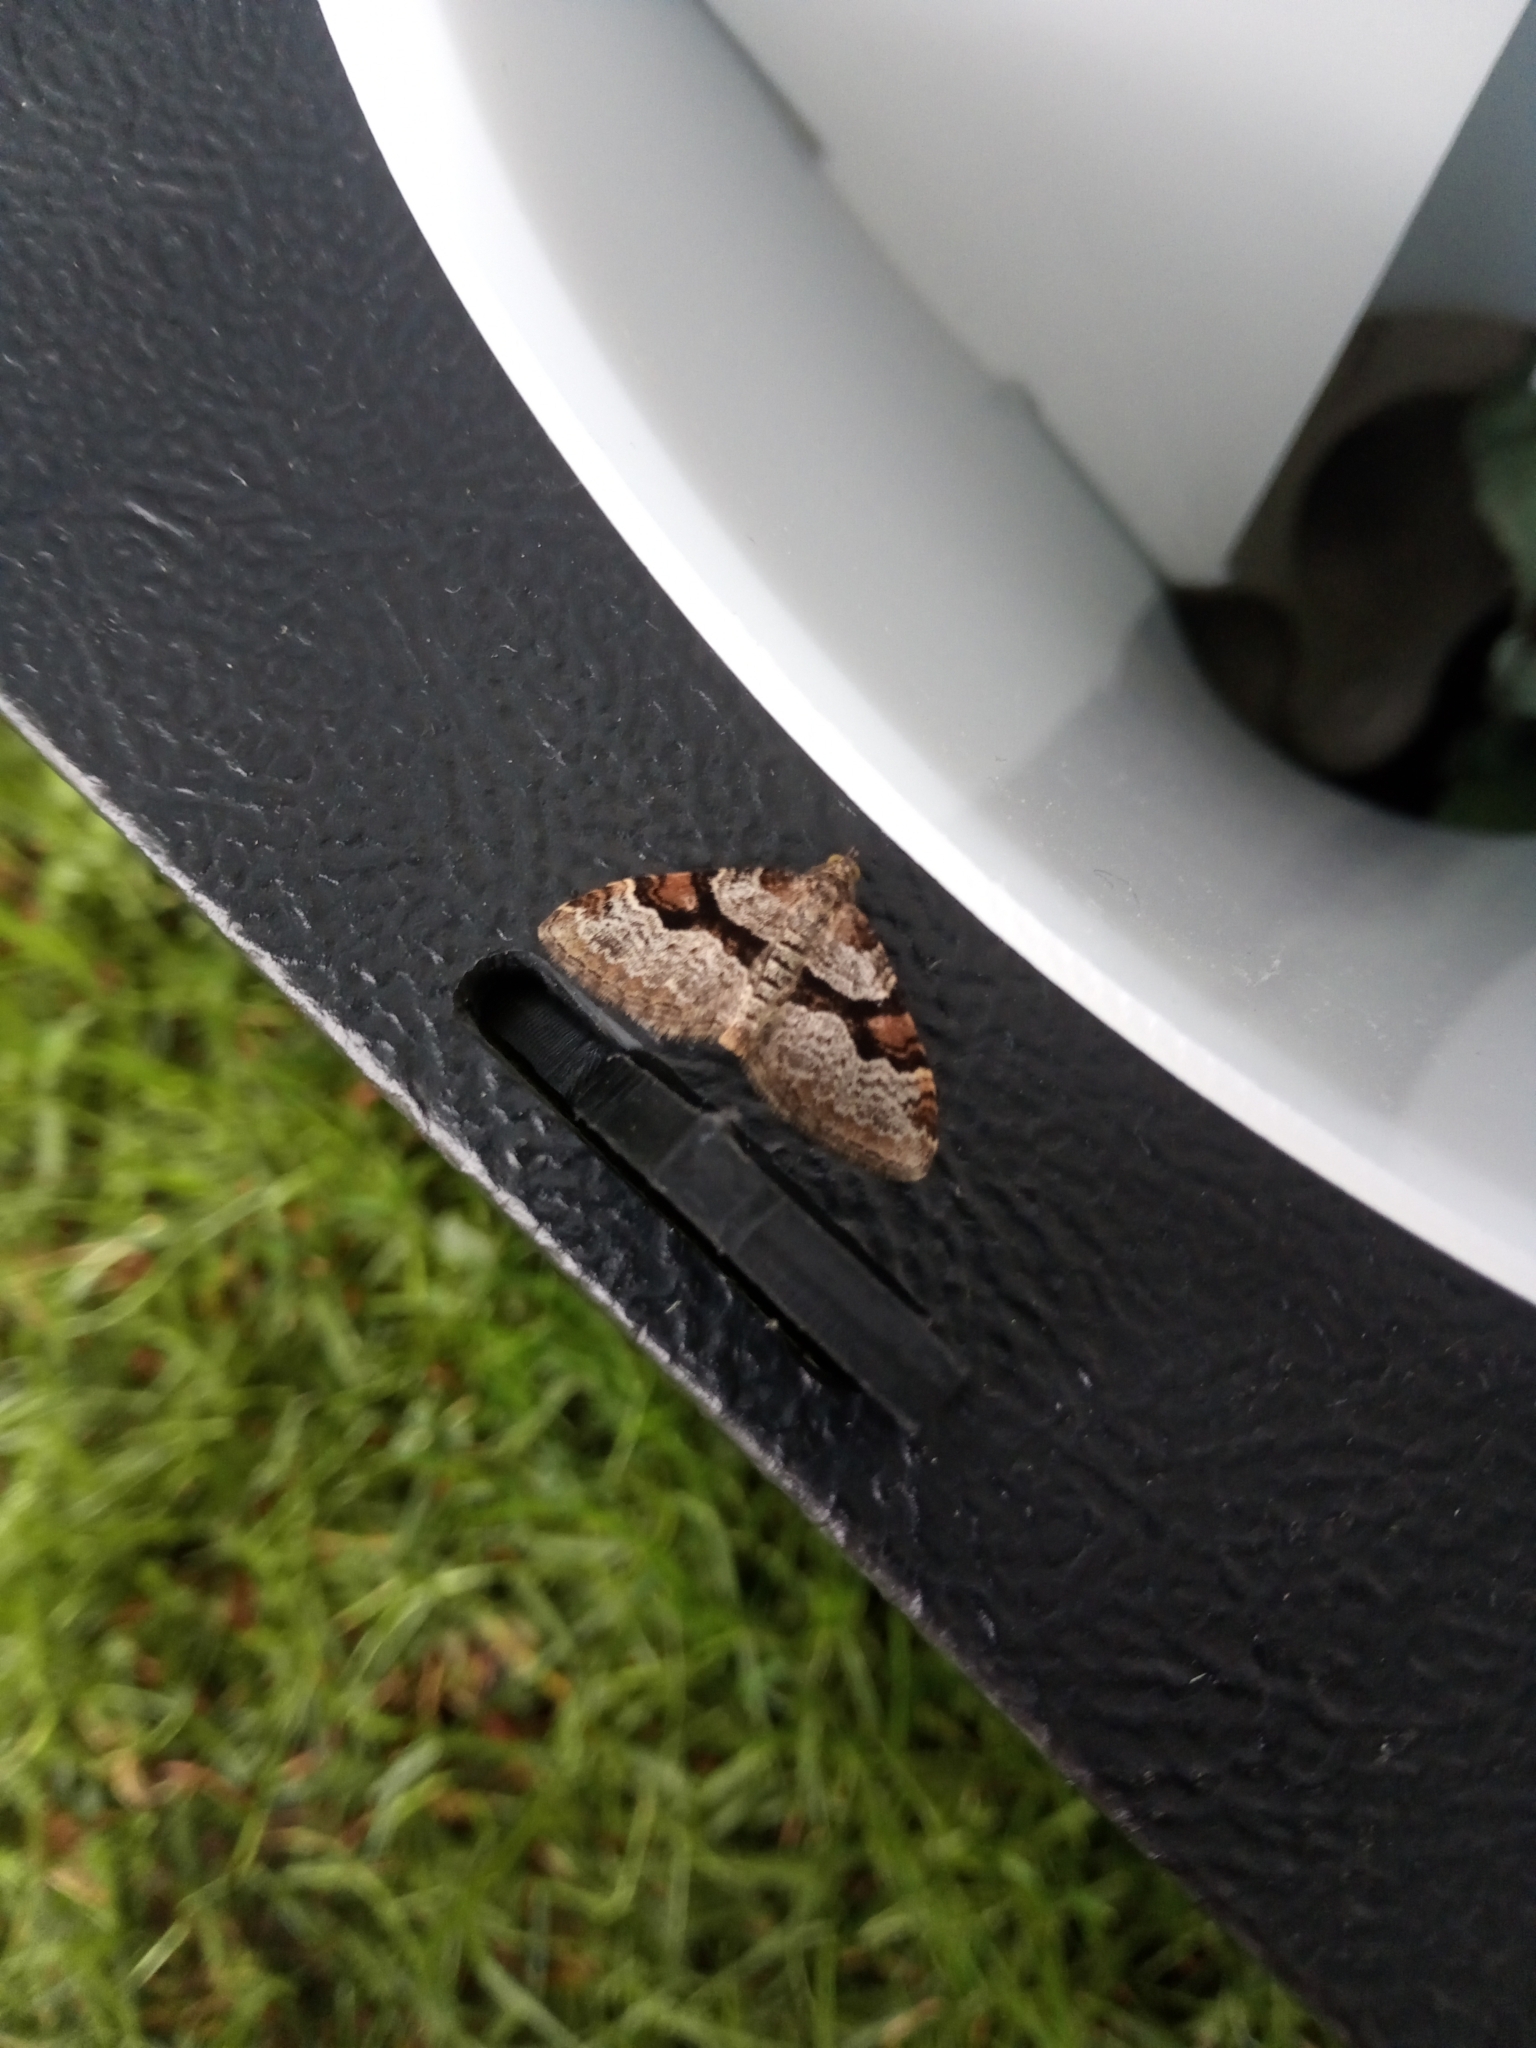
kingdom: Animalia
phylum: Arthropoda
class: Insecta
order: Lepidoptera
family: Geometridae
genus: Xanthorhoe
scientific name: Xanthorhoe designata
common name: Flame carpet
